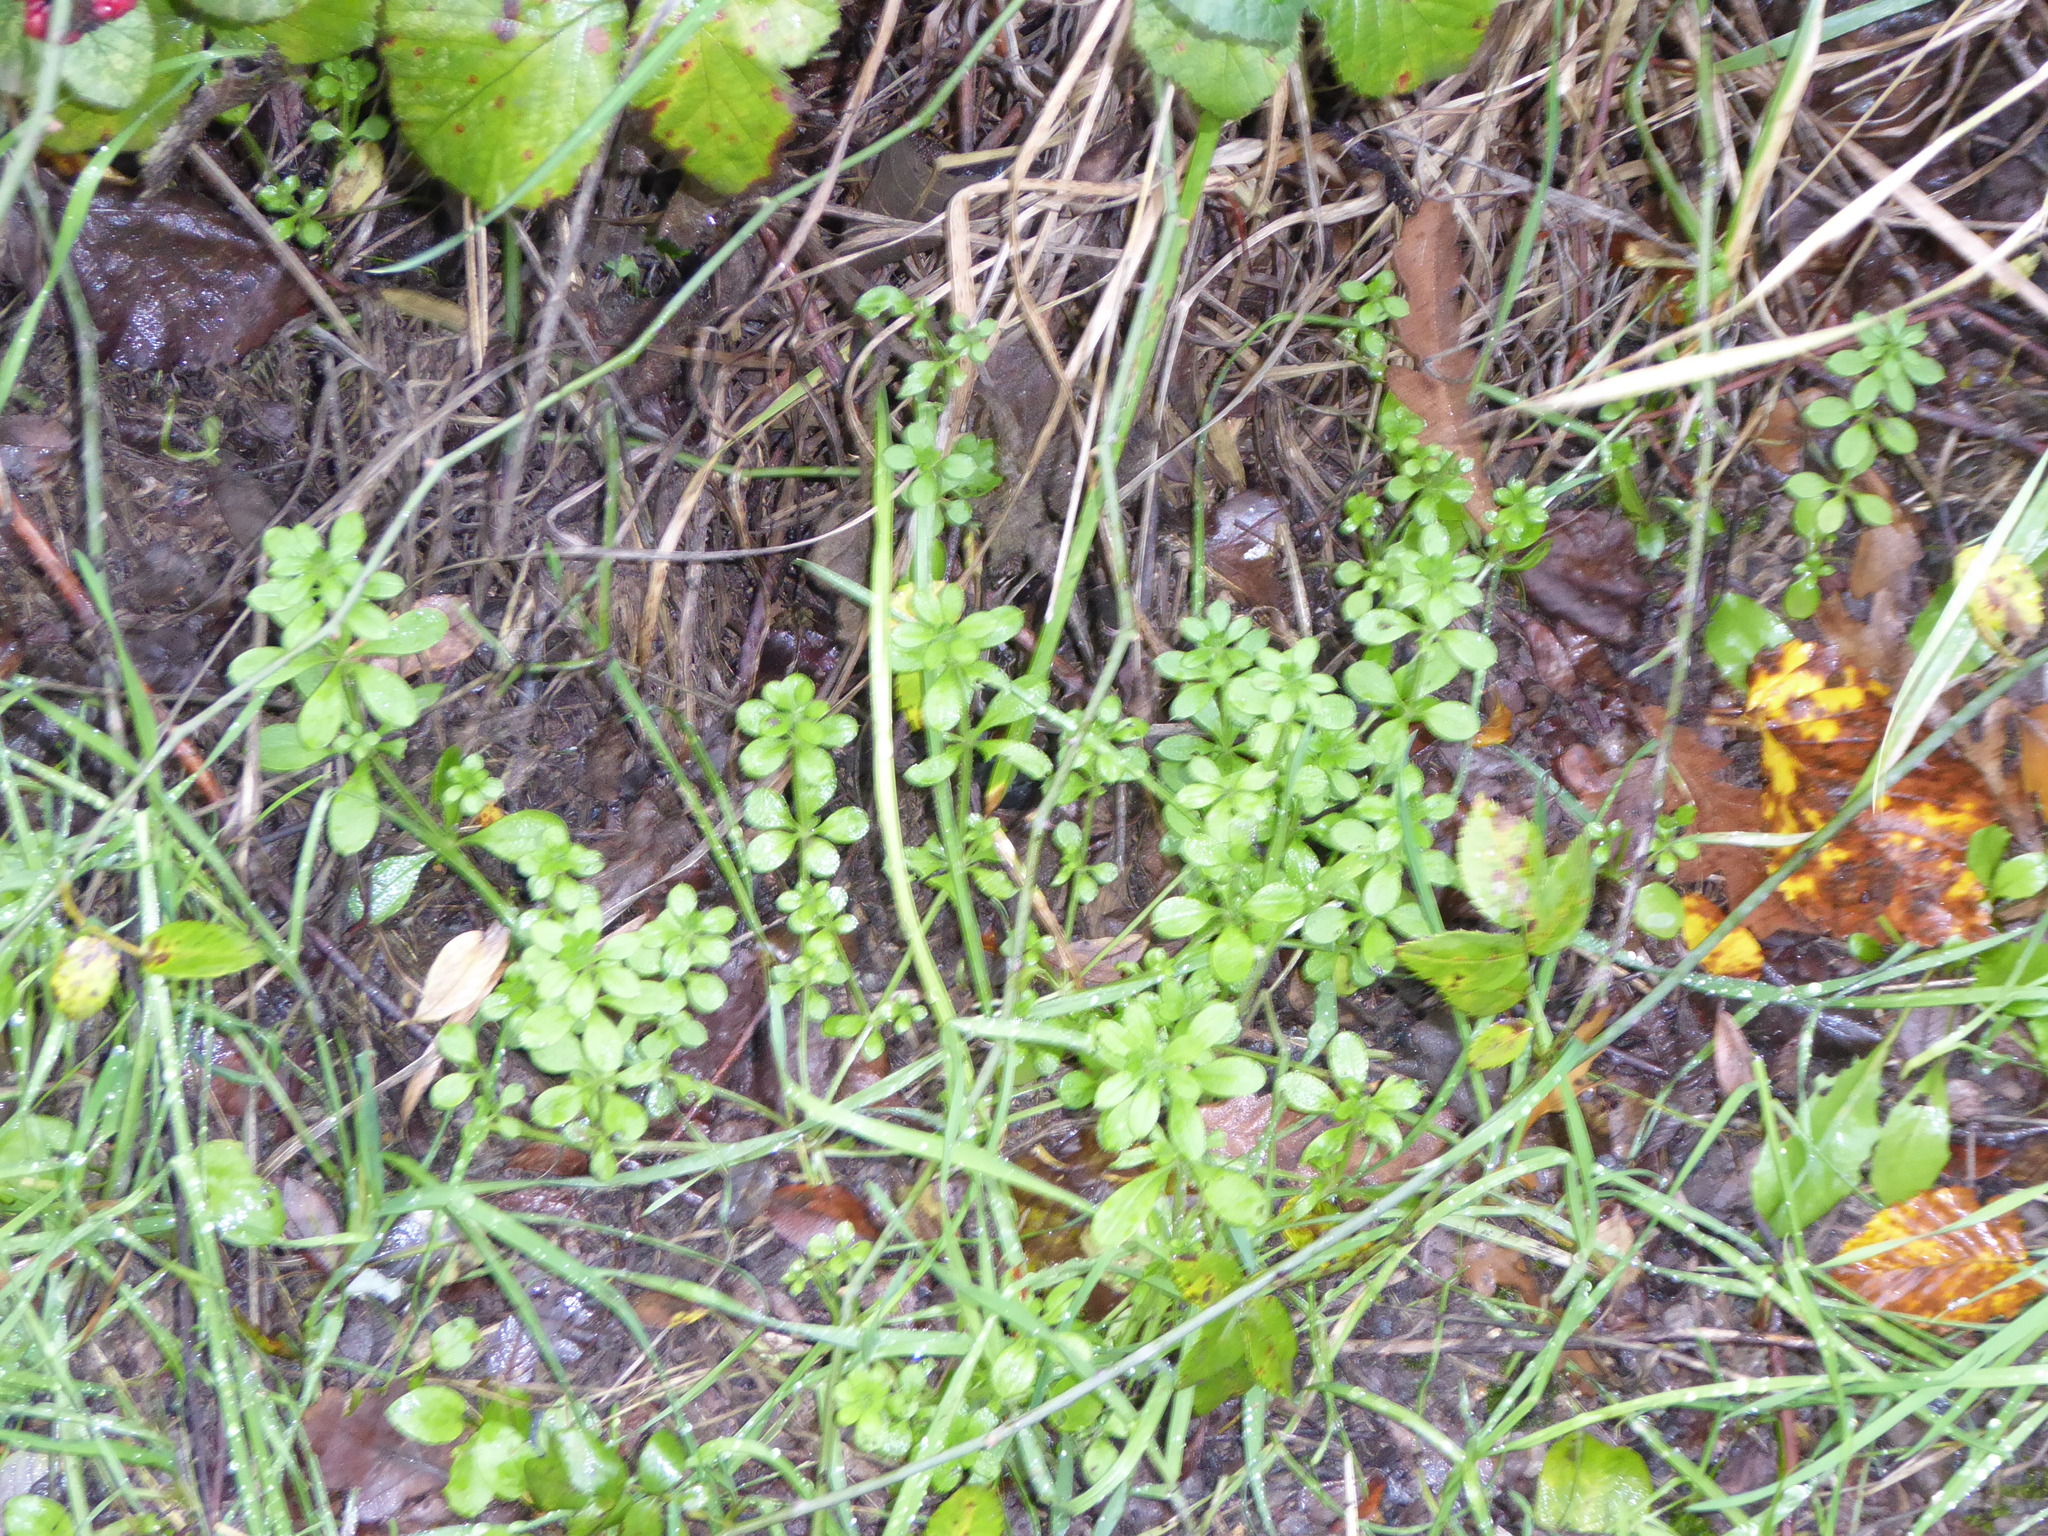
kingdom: Plantae
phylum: Tracheophyta
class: Magnoliopsida
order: Gentianales
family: Rubiaceae
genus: Galium
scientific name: Galium aparine
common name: Cleavers
